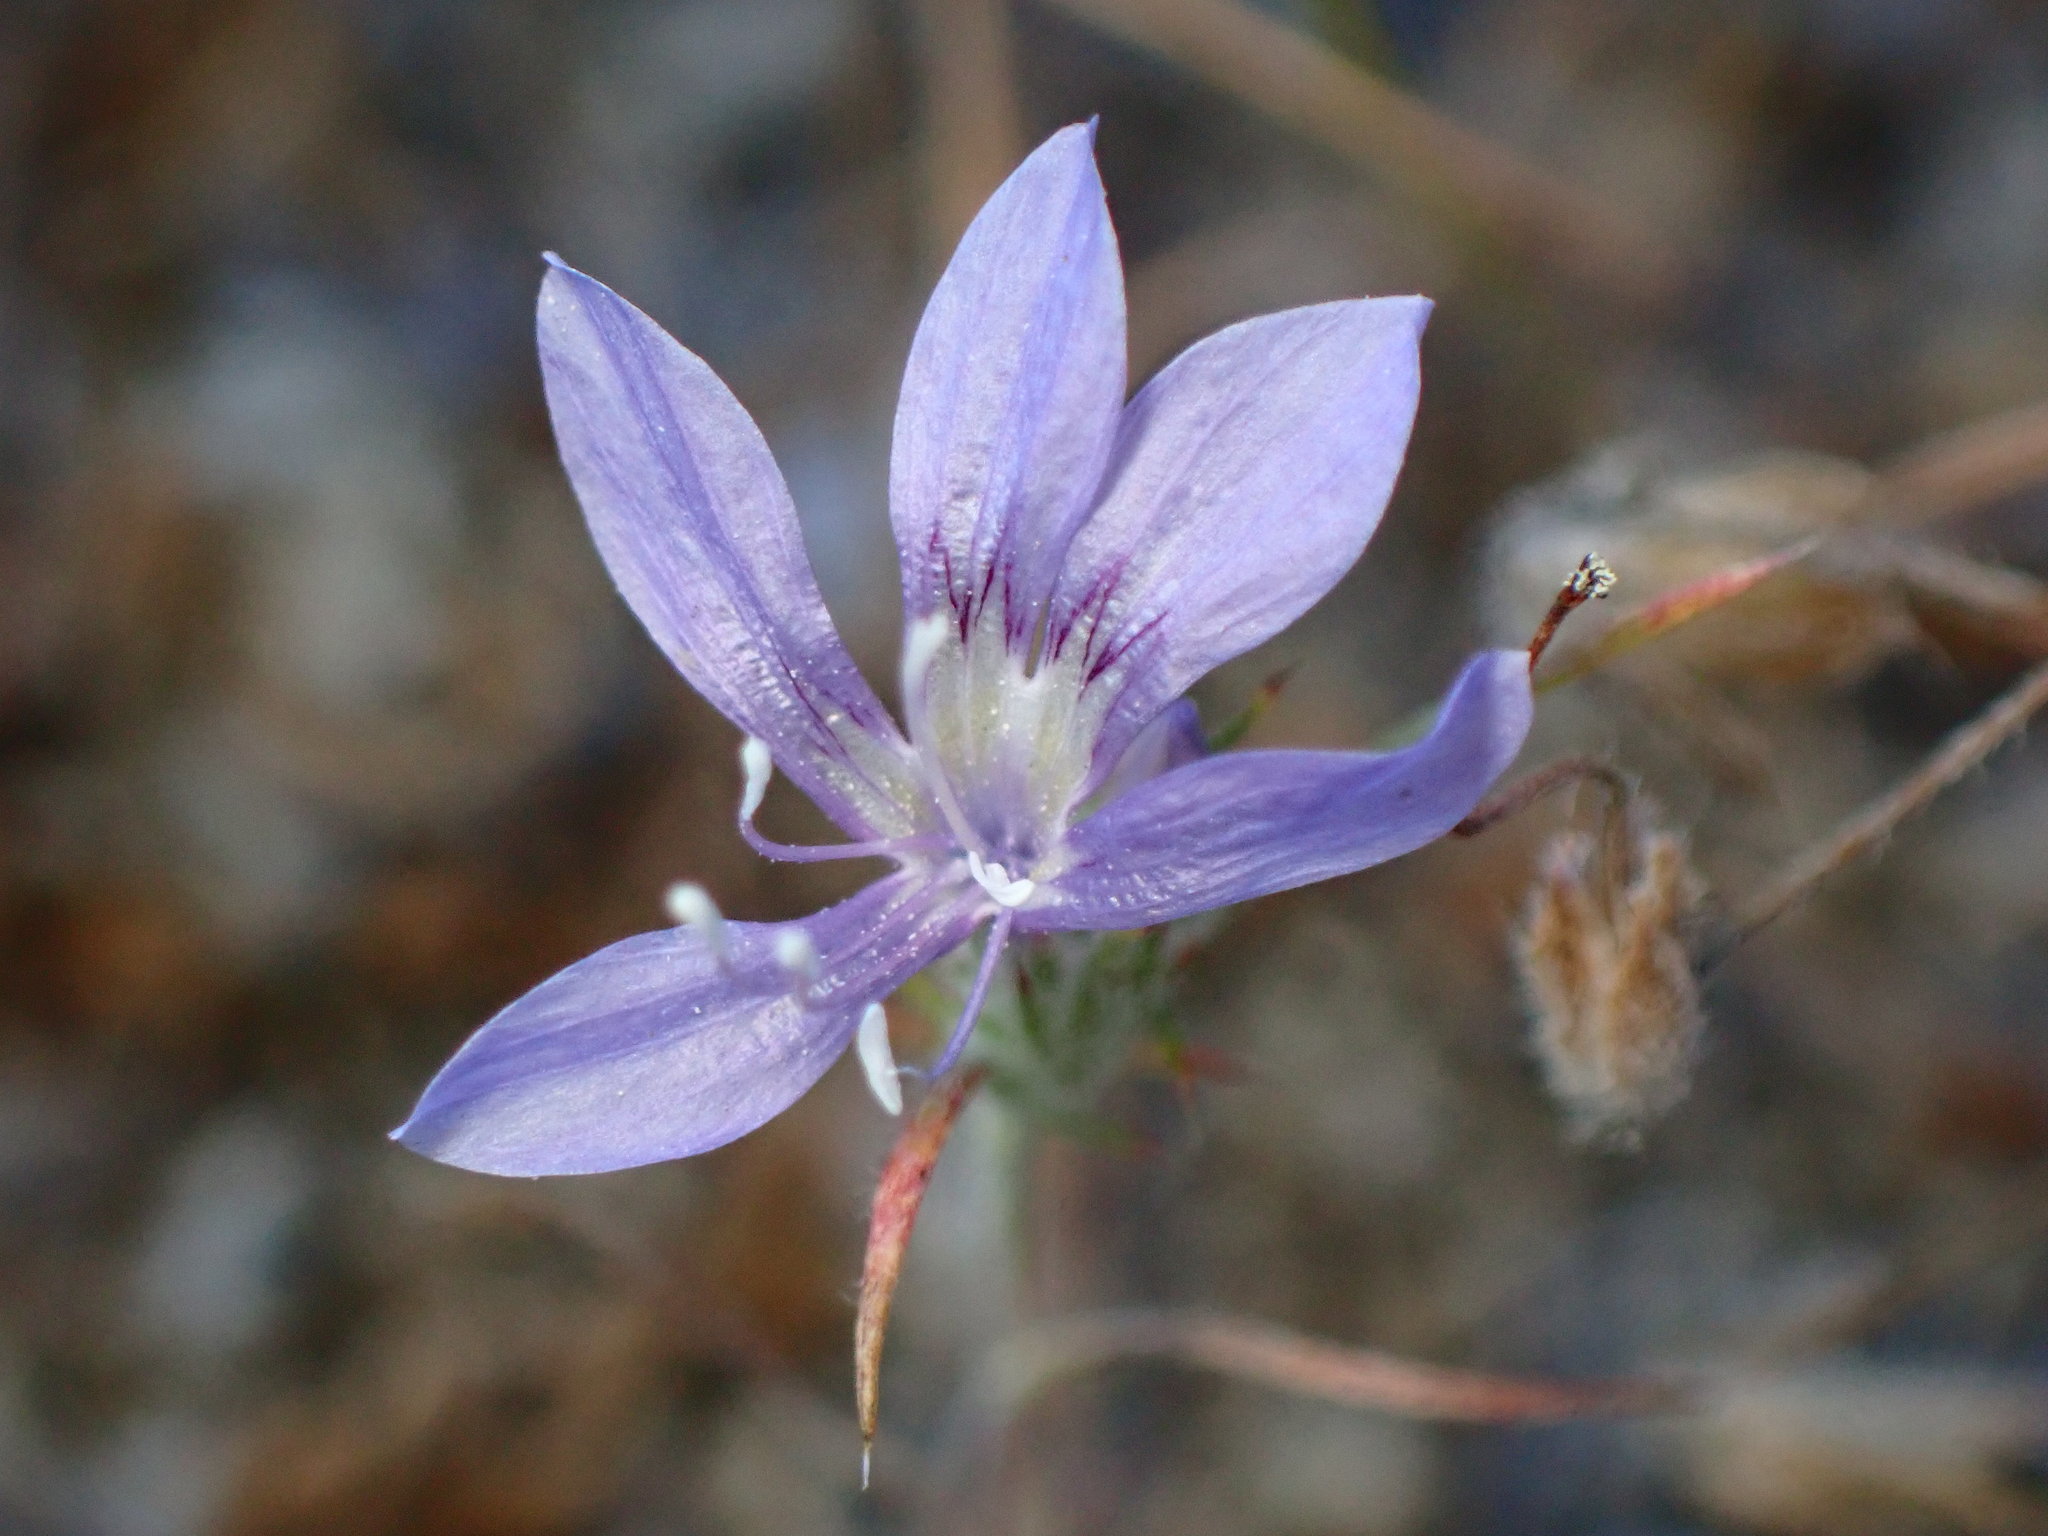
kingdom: Plantae
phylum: Tracheophyta
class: Magnoliopsida
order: Ericales
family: Polemoniaceae
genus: Eriastrum
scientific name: Eriastrum eremicum
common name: Desert eriastrum
